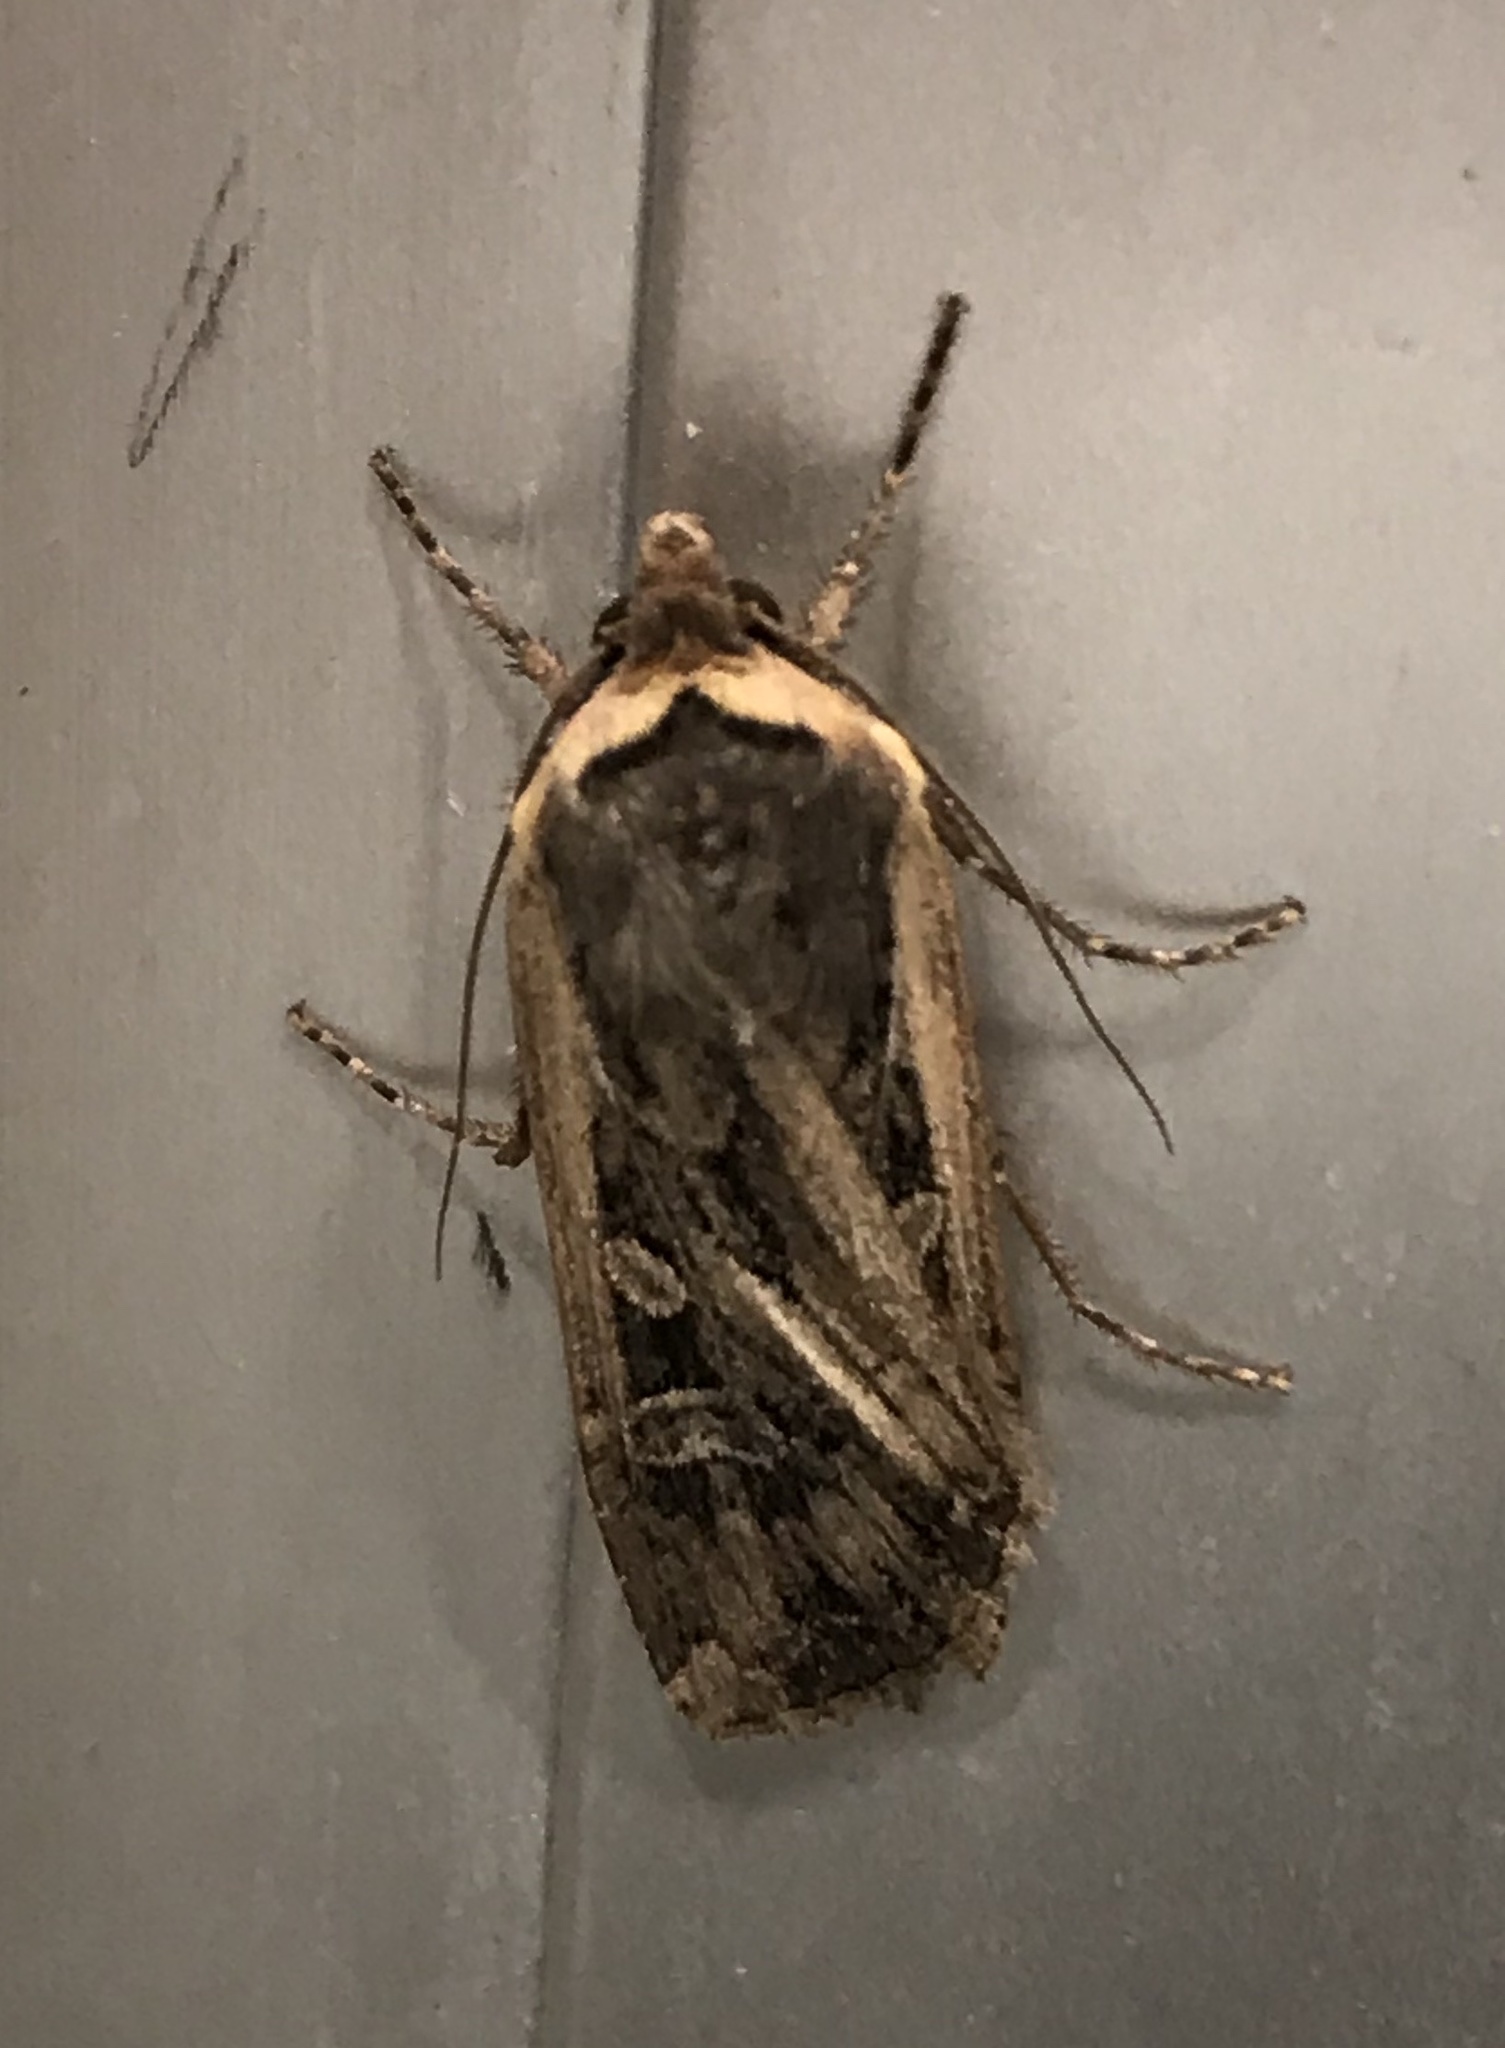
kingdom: Animalia
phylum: Arthropoda
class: Insecta
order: Lepidoptera
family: Noctuidae
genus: Euxoa
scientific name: Euxoa auxiliaris
